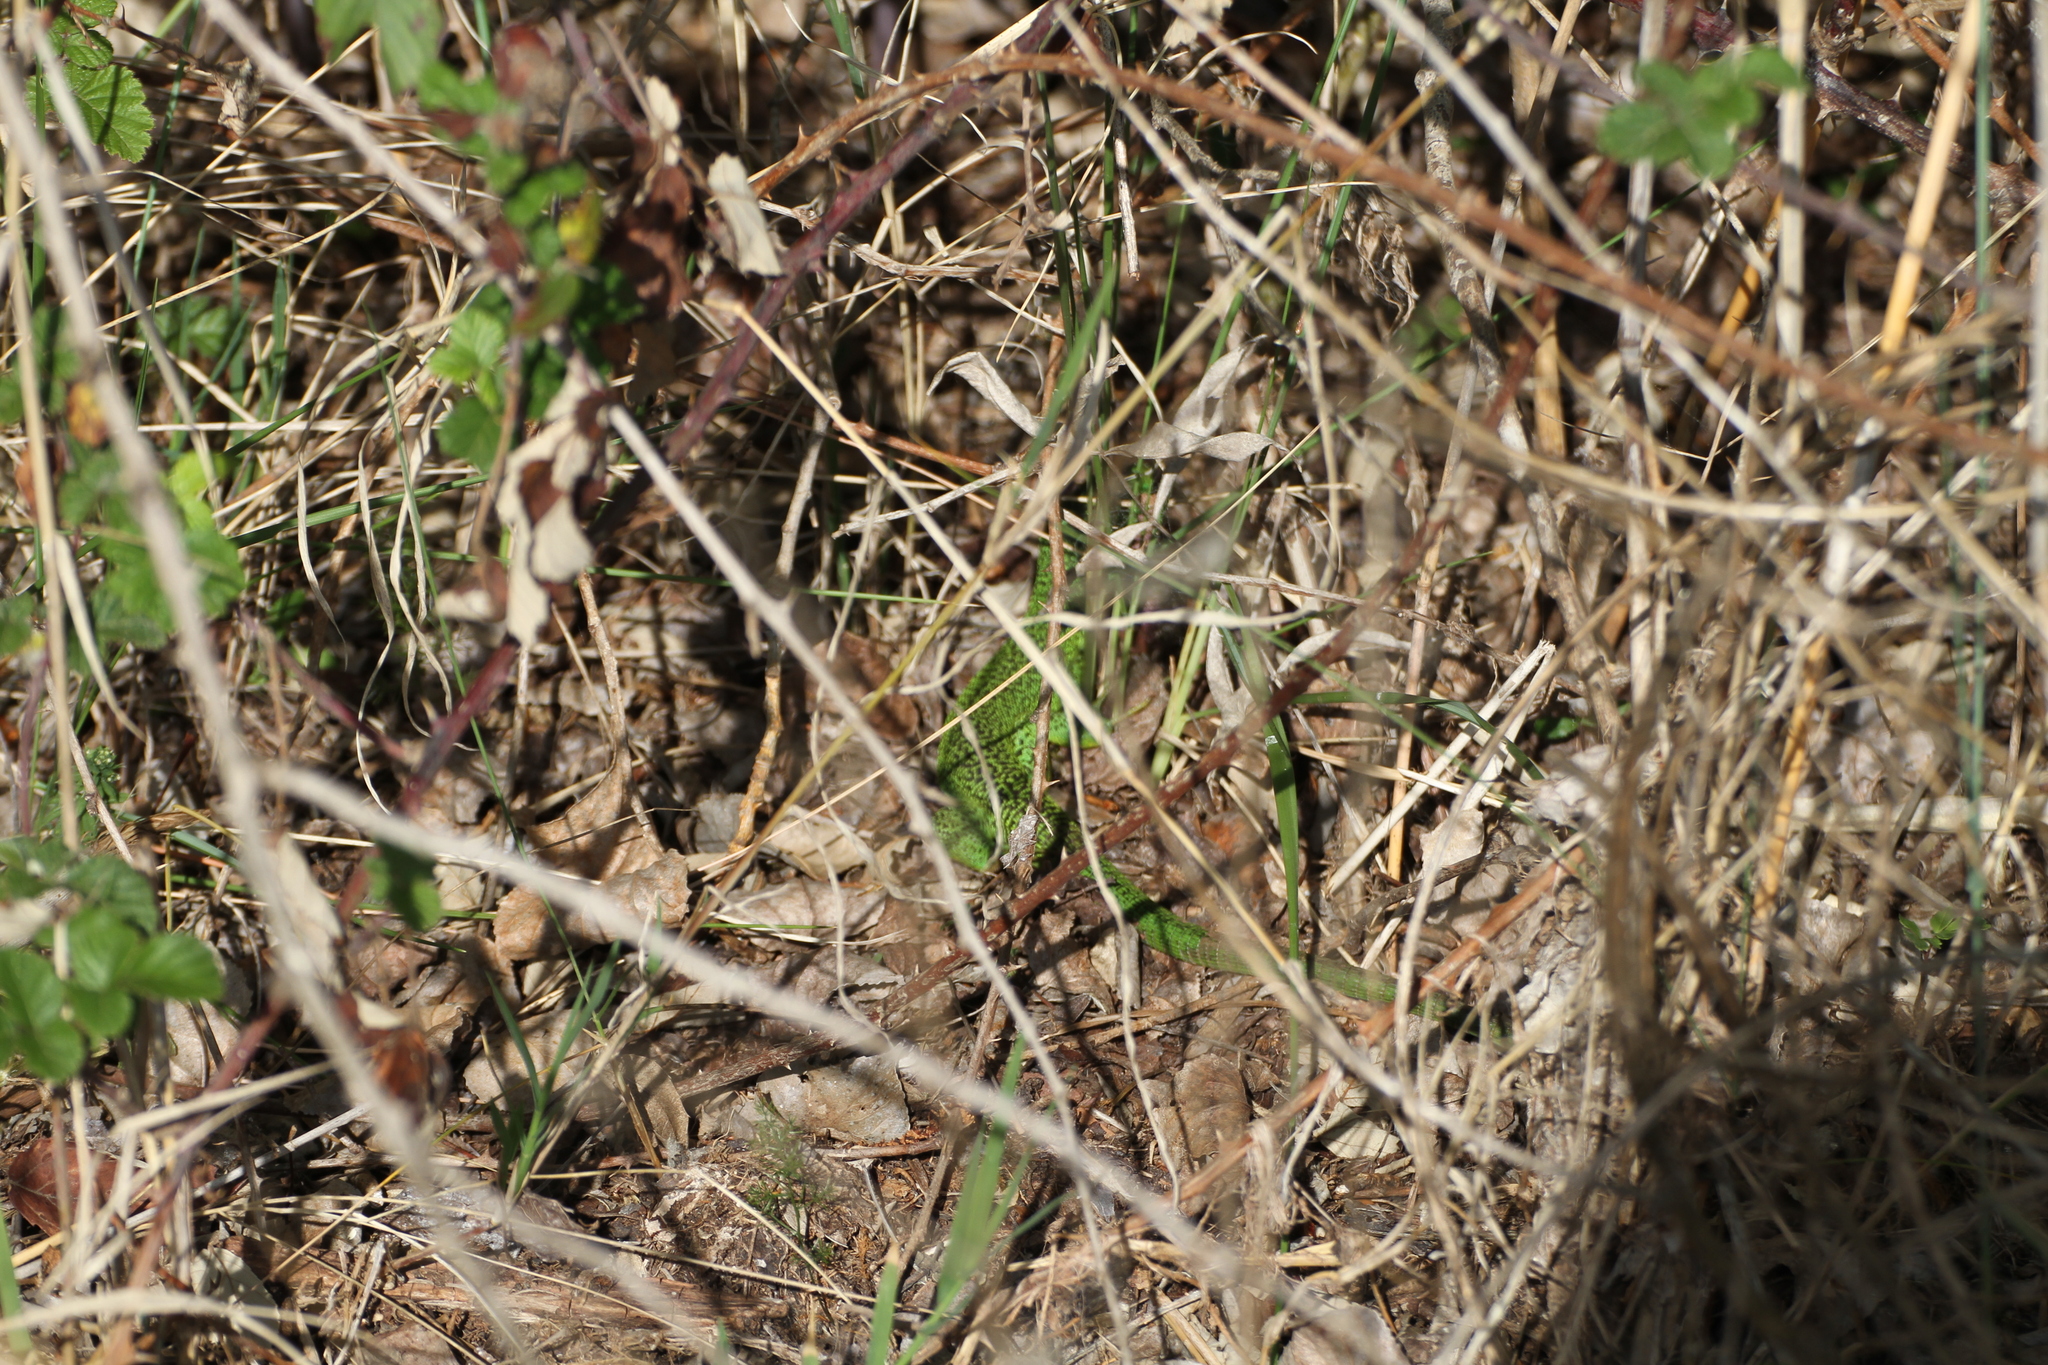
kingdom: Animalia
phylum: Chordata
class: Squamata
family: Lacertidae
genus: Lacerta
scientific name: Lacerta bilineata
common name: Western green lizard
